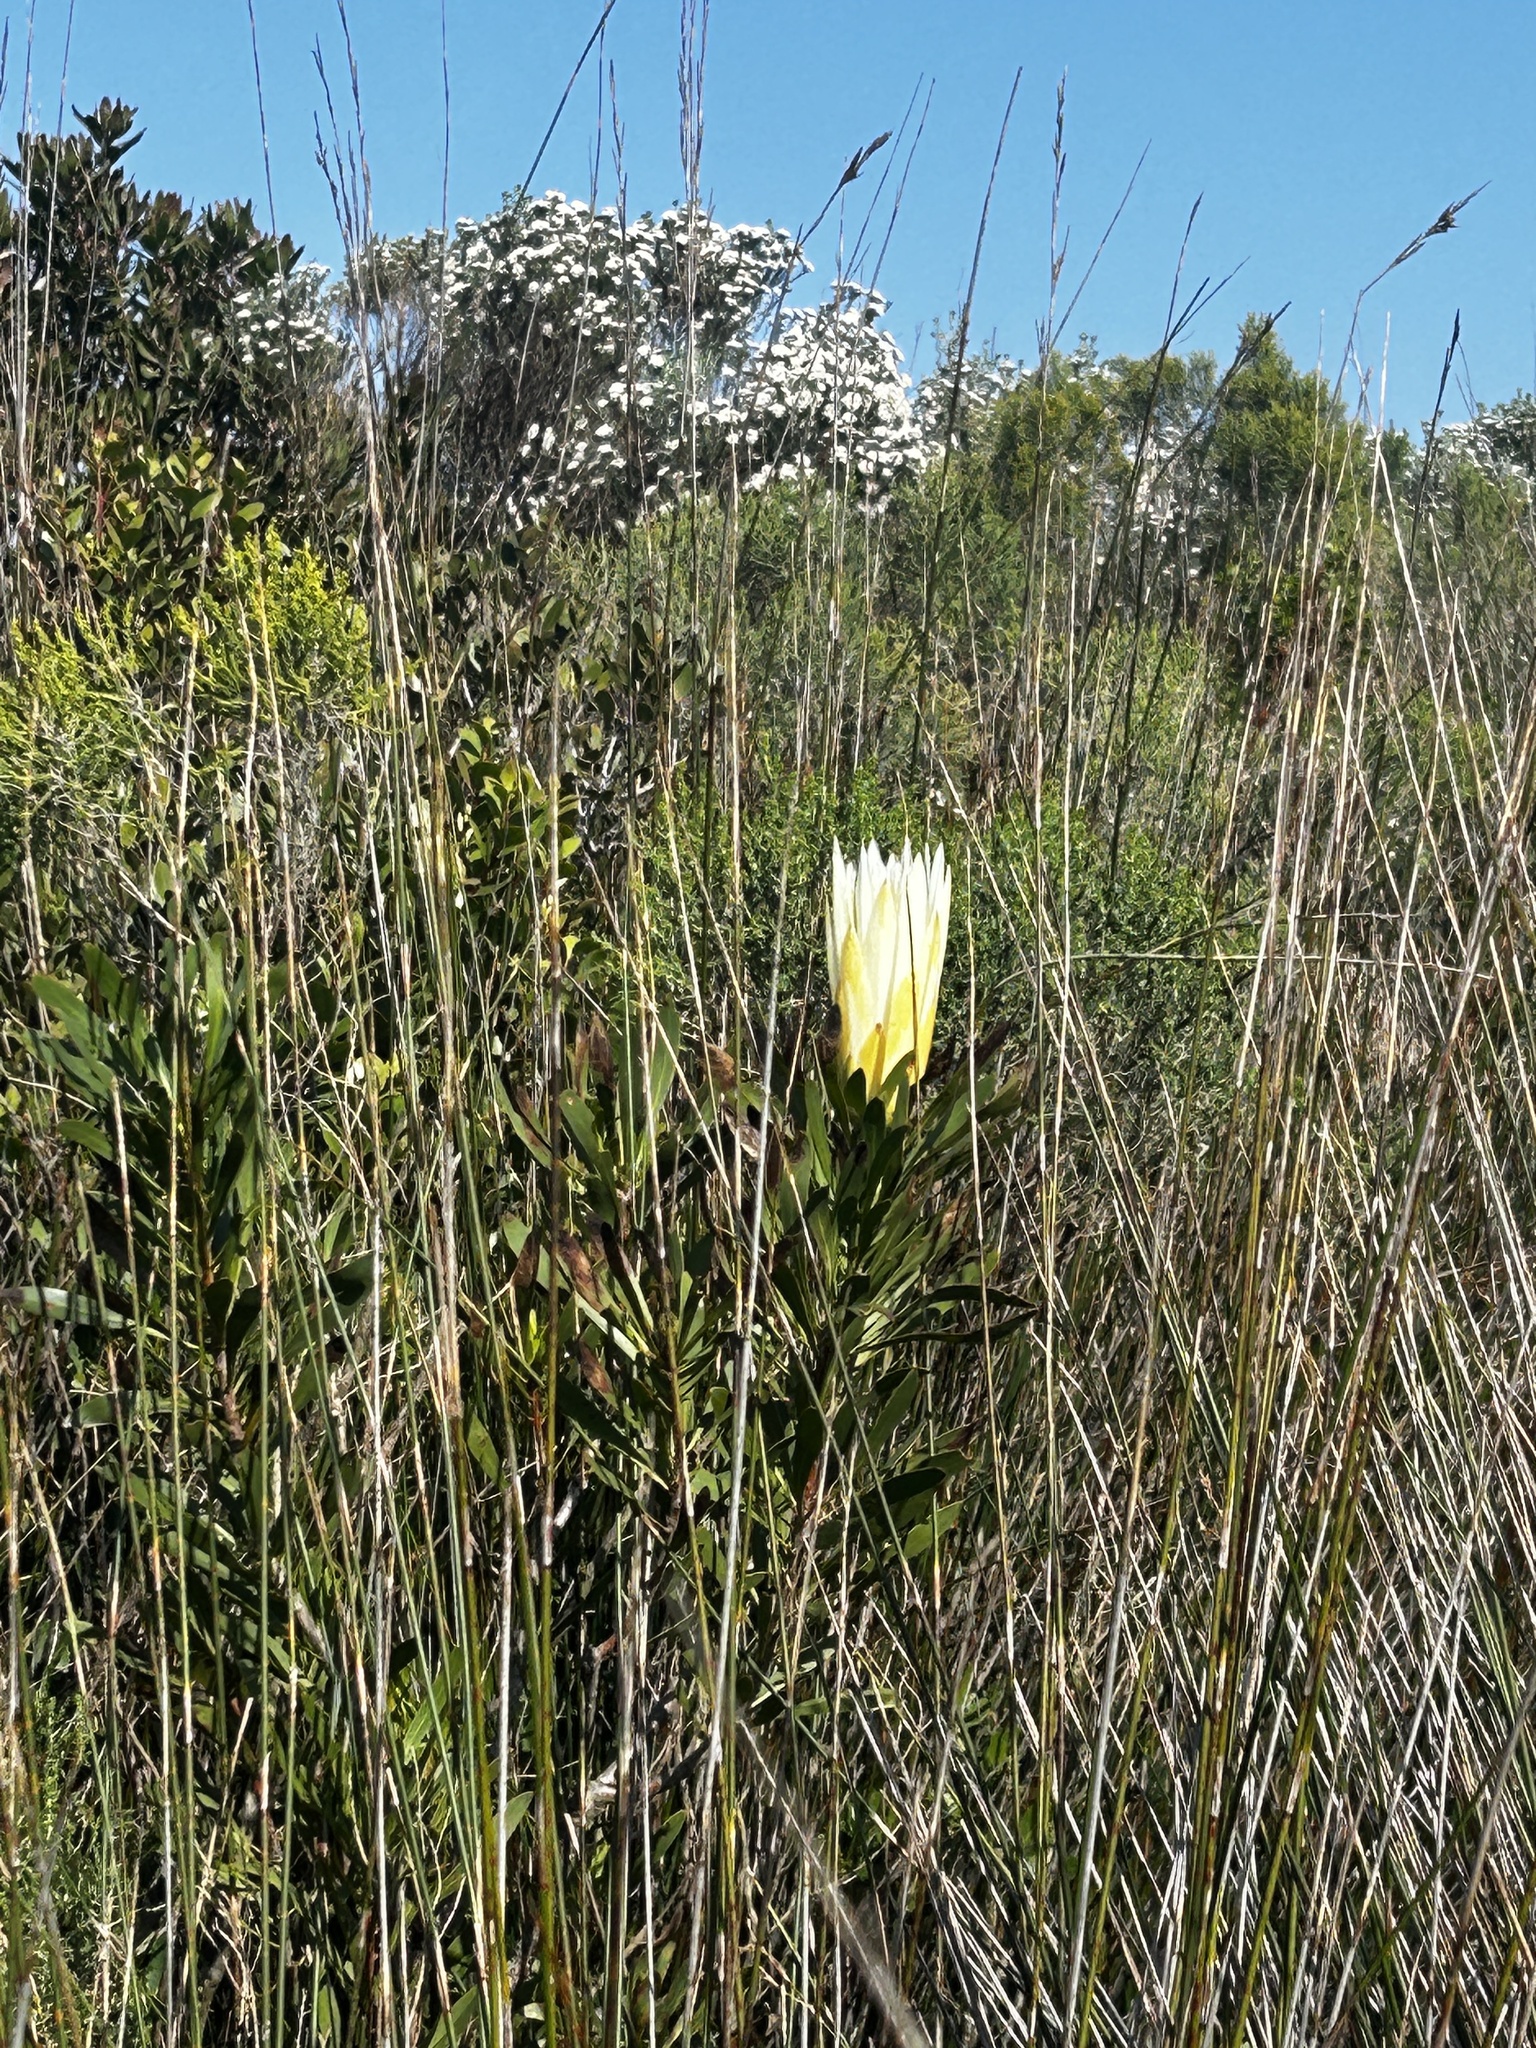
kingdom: Plantae
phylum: Tracheophyta
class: Magnoliopsida
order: Proteales
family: Proteaceae
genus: Protea
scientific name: Protea repens
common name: Sugarbush
